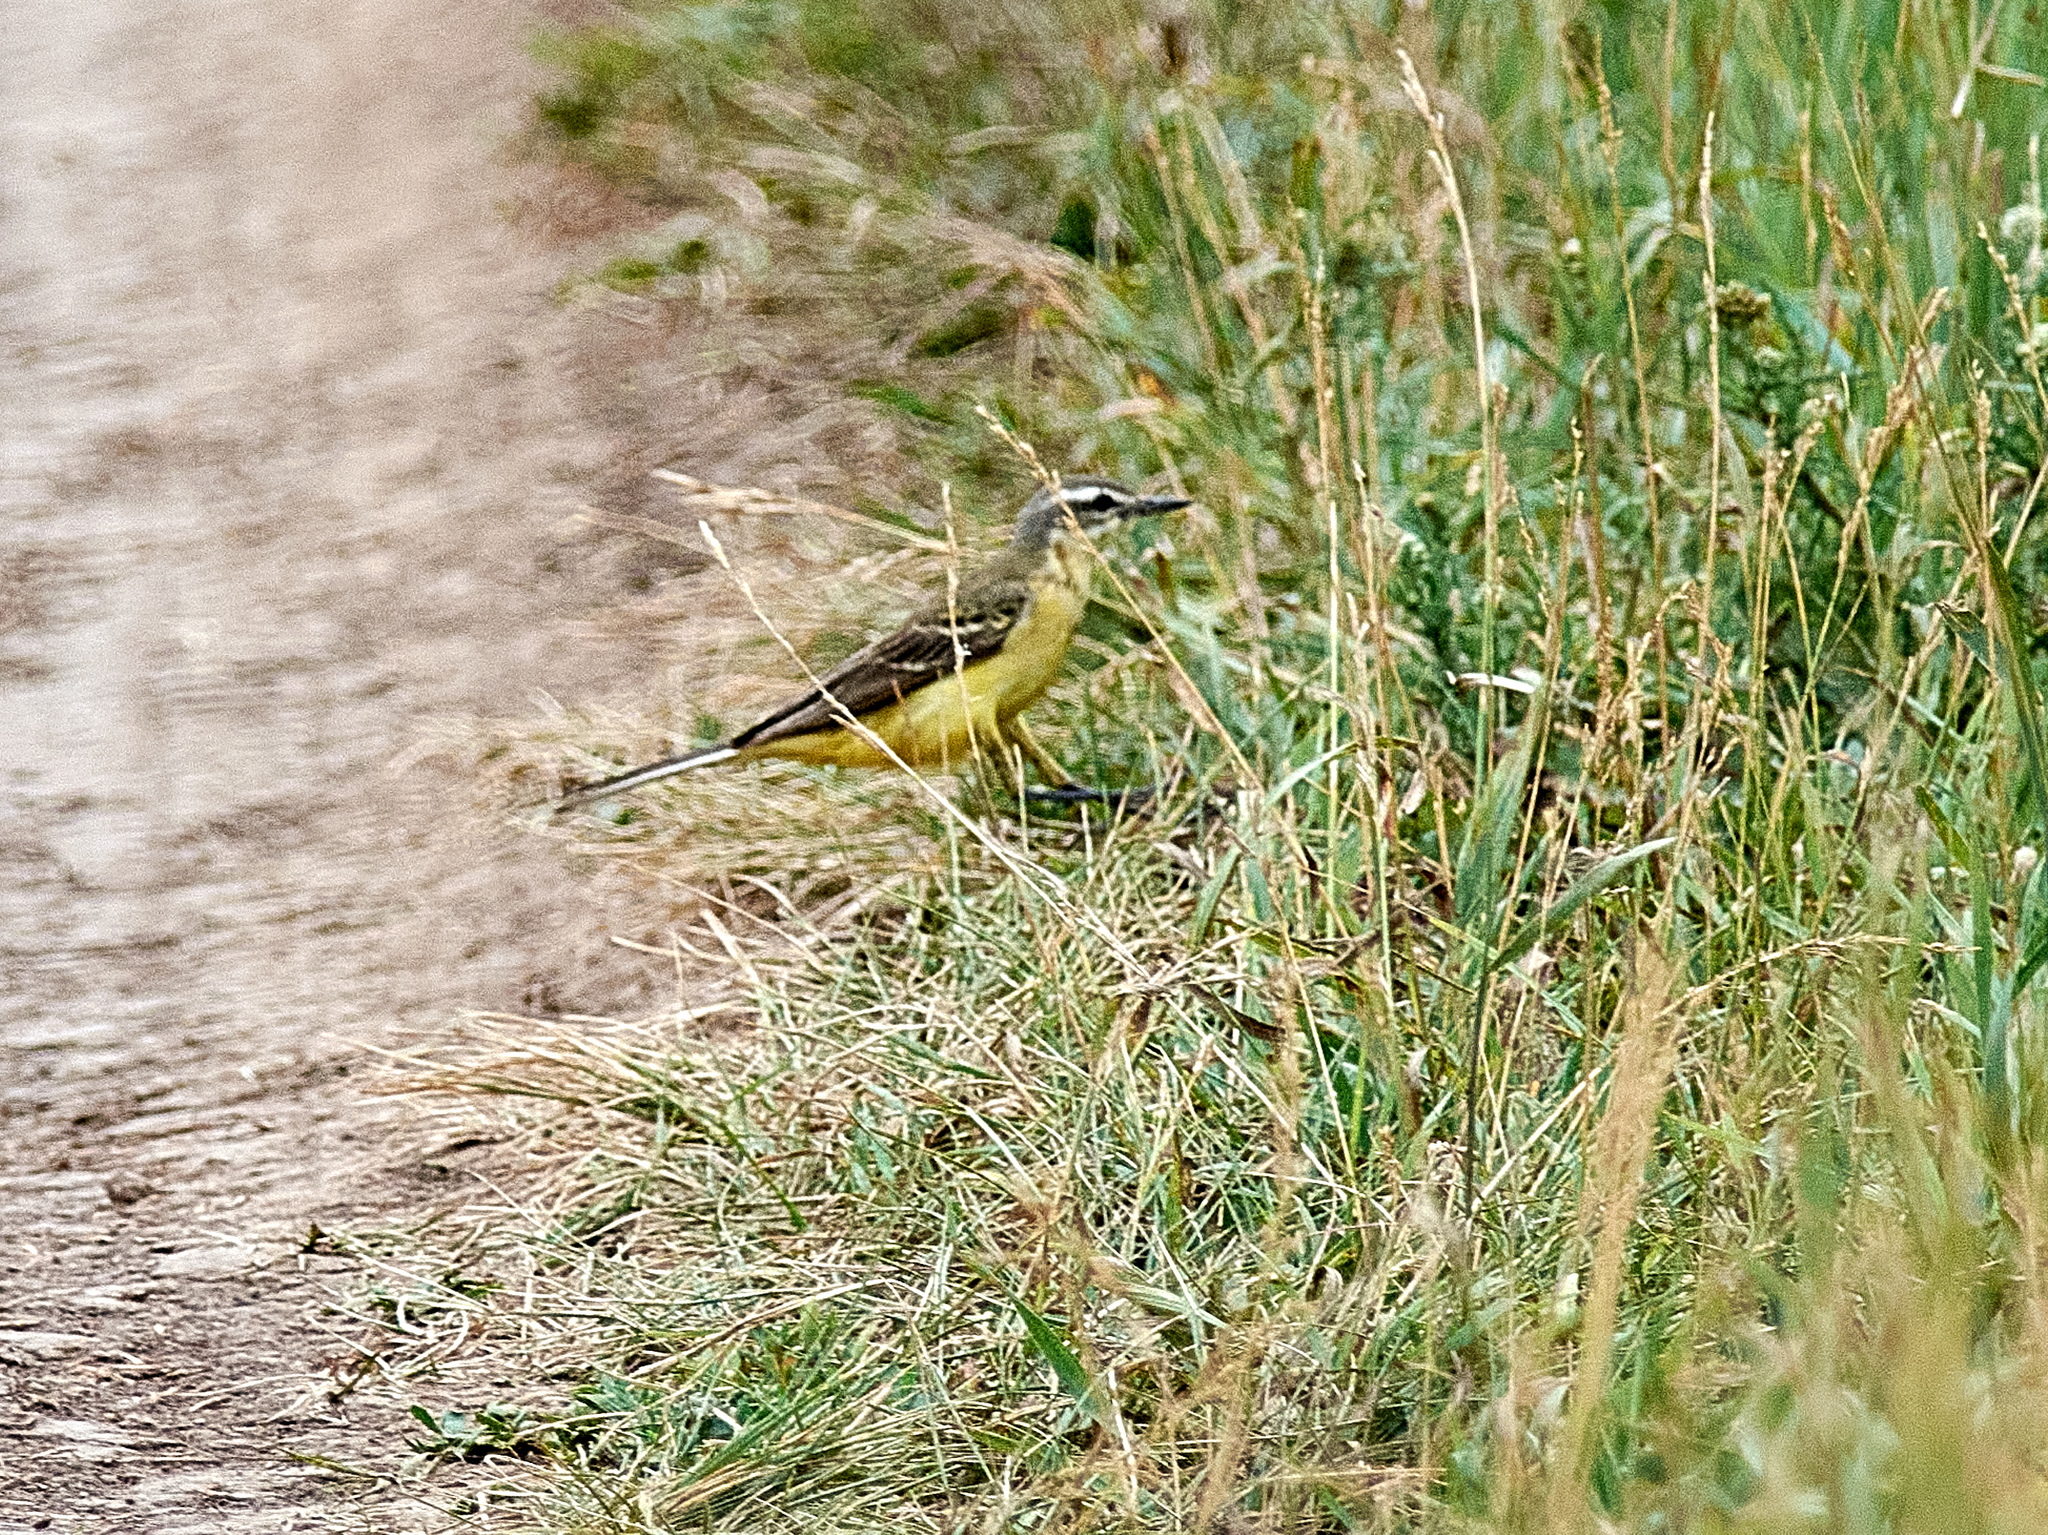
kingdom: Animalia
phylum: Chordata
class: Aves
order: Passeriformes
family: Motacillidae
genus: Motacilla
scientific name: Motacilla flava
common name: Western yellow wagtail
